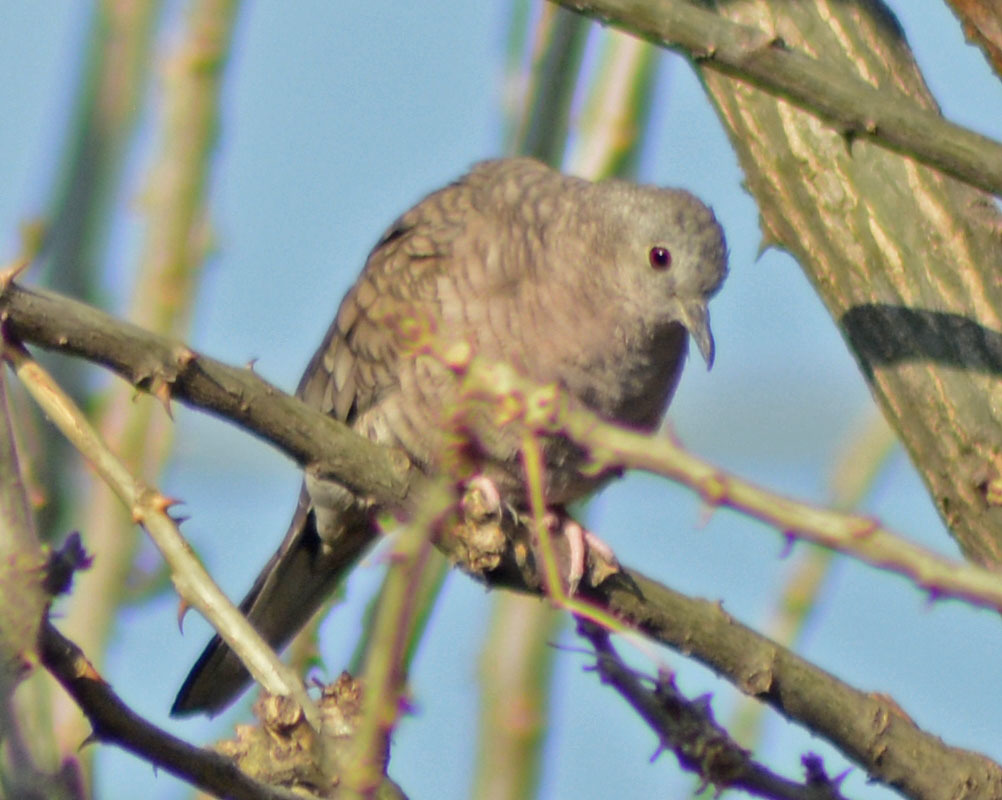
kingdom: Animalia
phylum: Chordata
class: Aves
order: Columbiformes
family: Columbidae
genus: Columbina
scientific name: Columbina inca
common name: Inca dove
